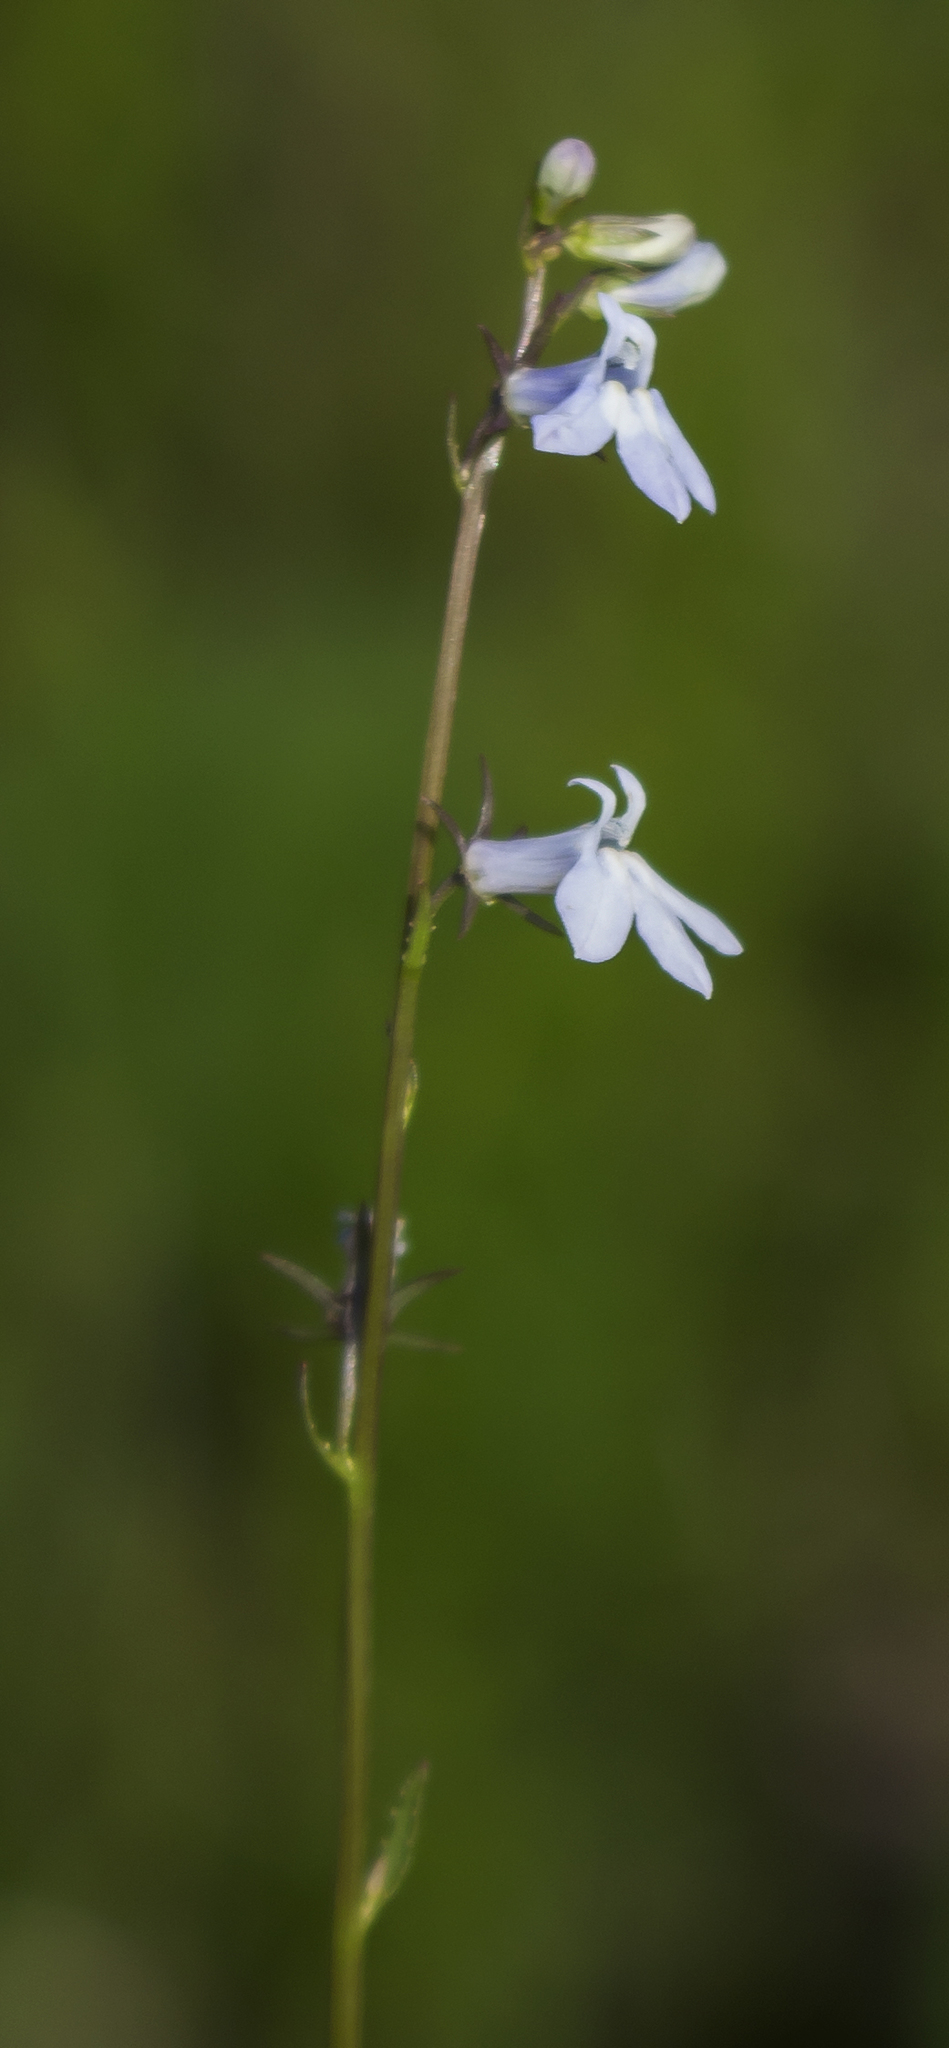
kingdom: Plantae
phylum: Tracheophyta
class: Magnoliopsida
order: Asterales
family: Campanulaceae
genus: Lobelia
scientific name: Lobelia spicata
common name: Pale-spike lobelia
